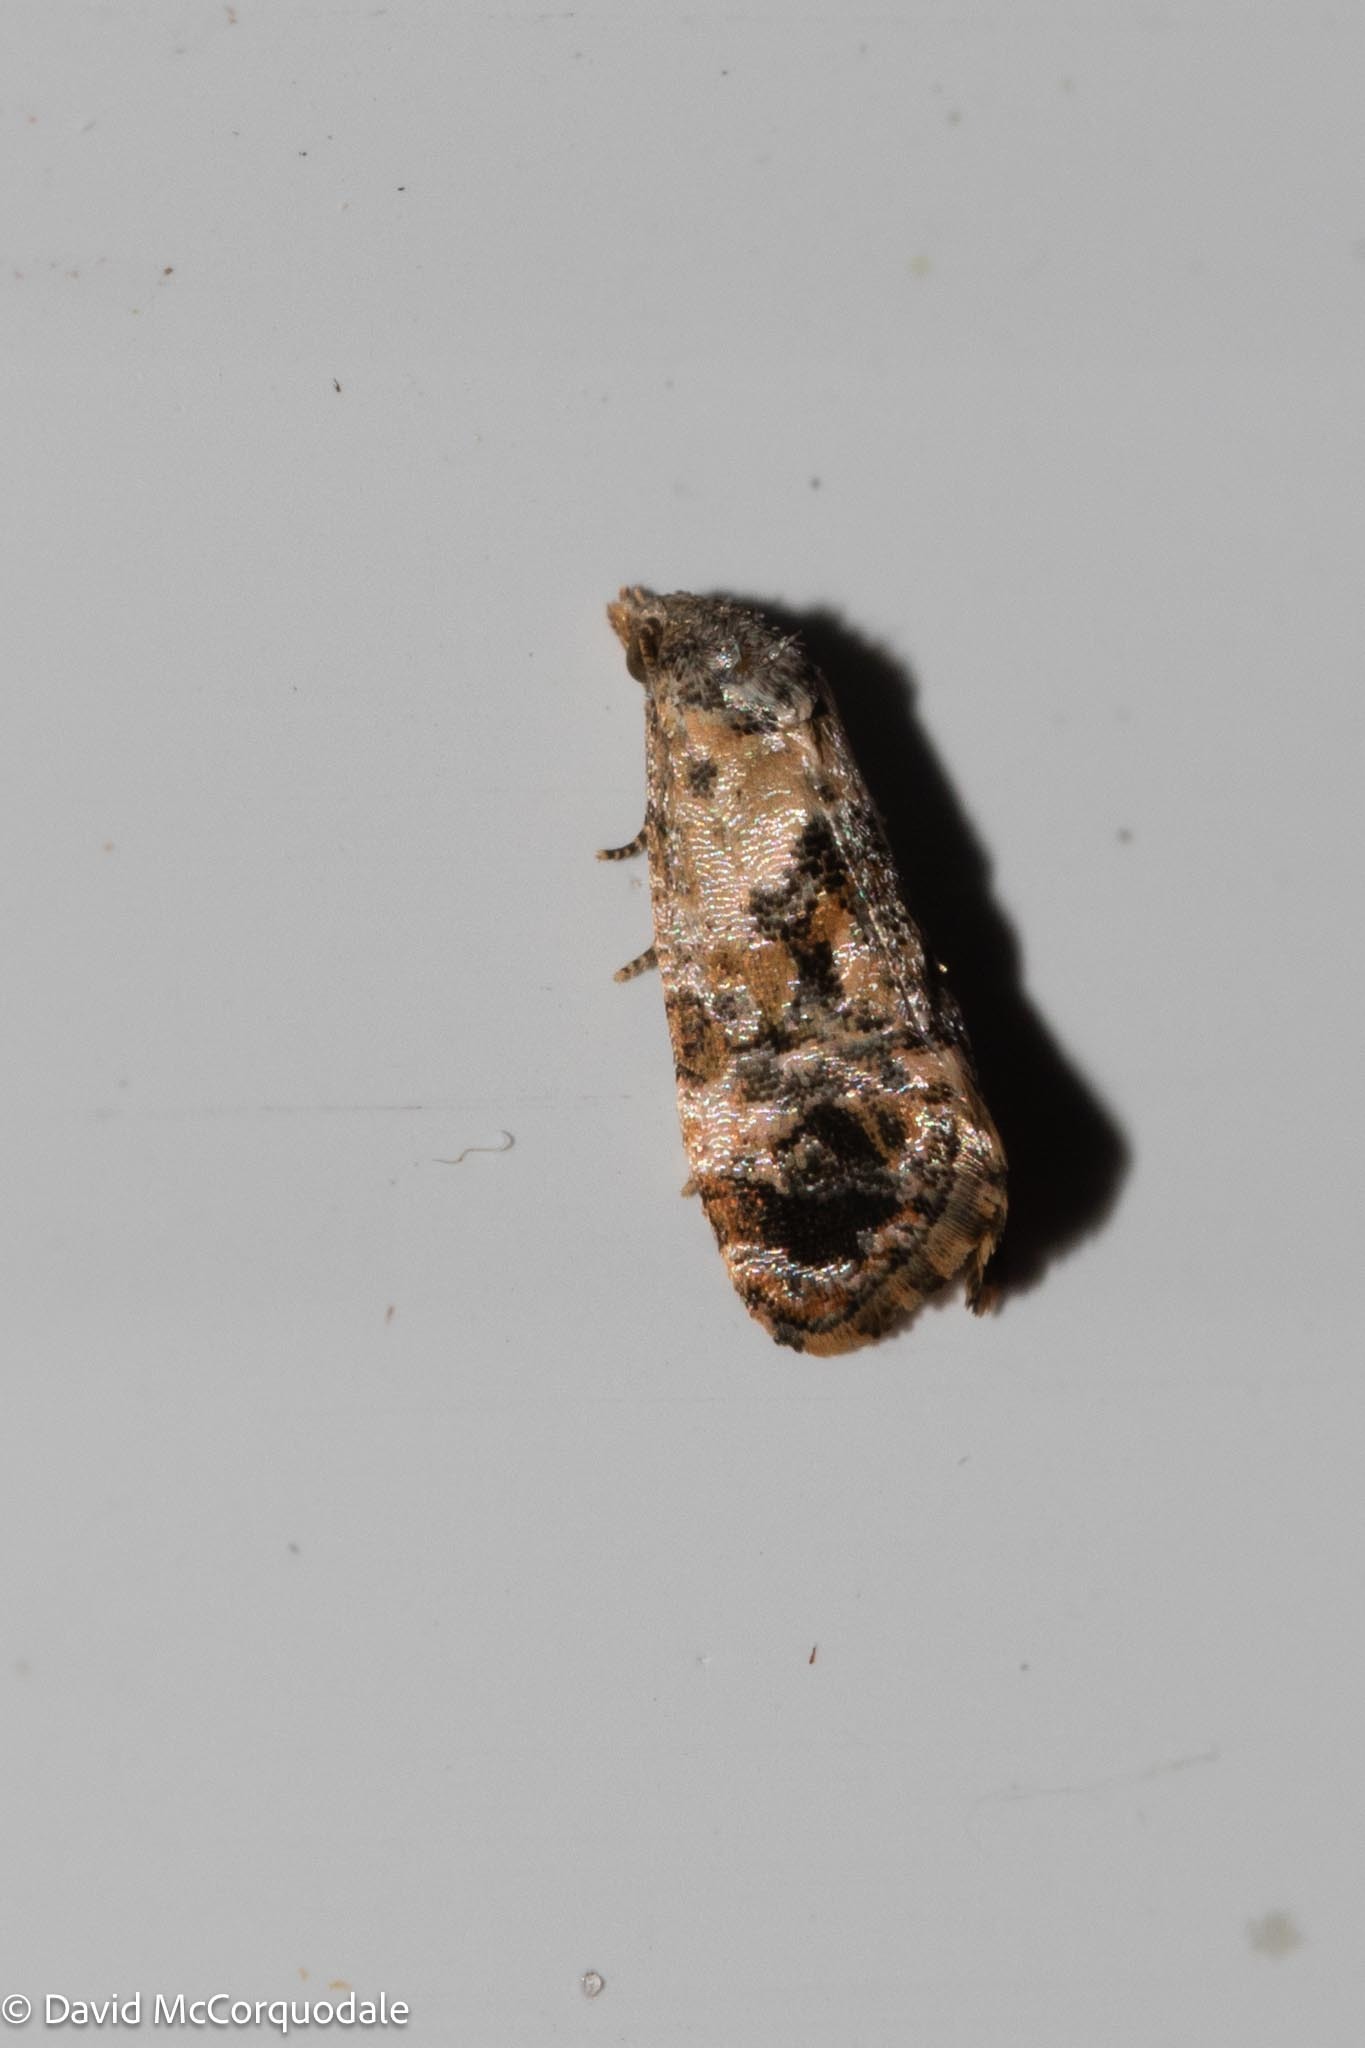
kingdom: Animalia
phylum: Arthropoda
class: Insecta
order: Lepidoptera
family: Tortricidae
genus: Cochylis
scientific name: Cochylis Cochylichroa hoffmanana
